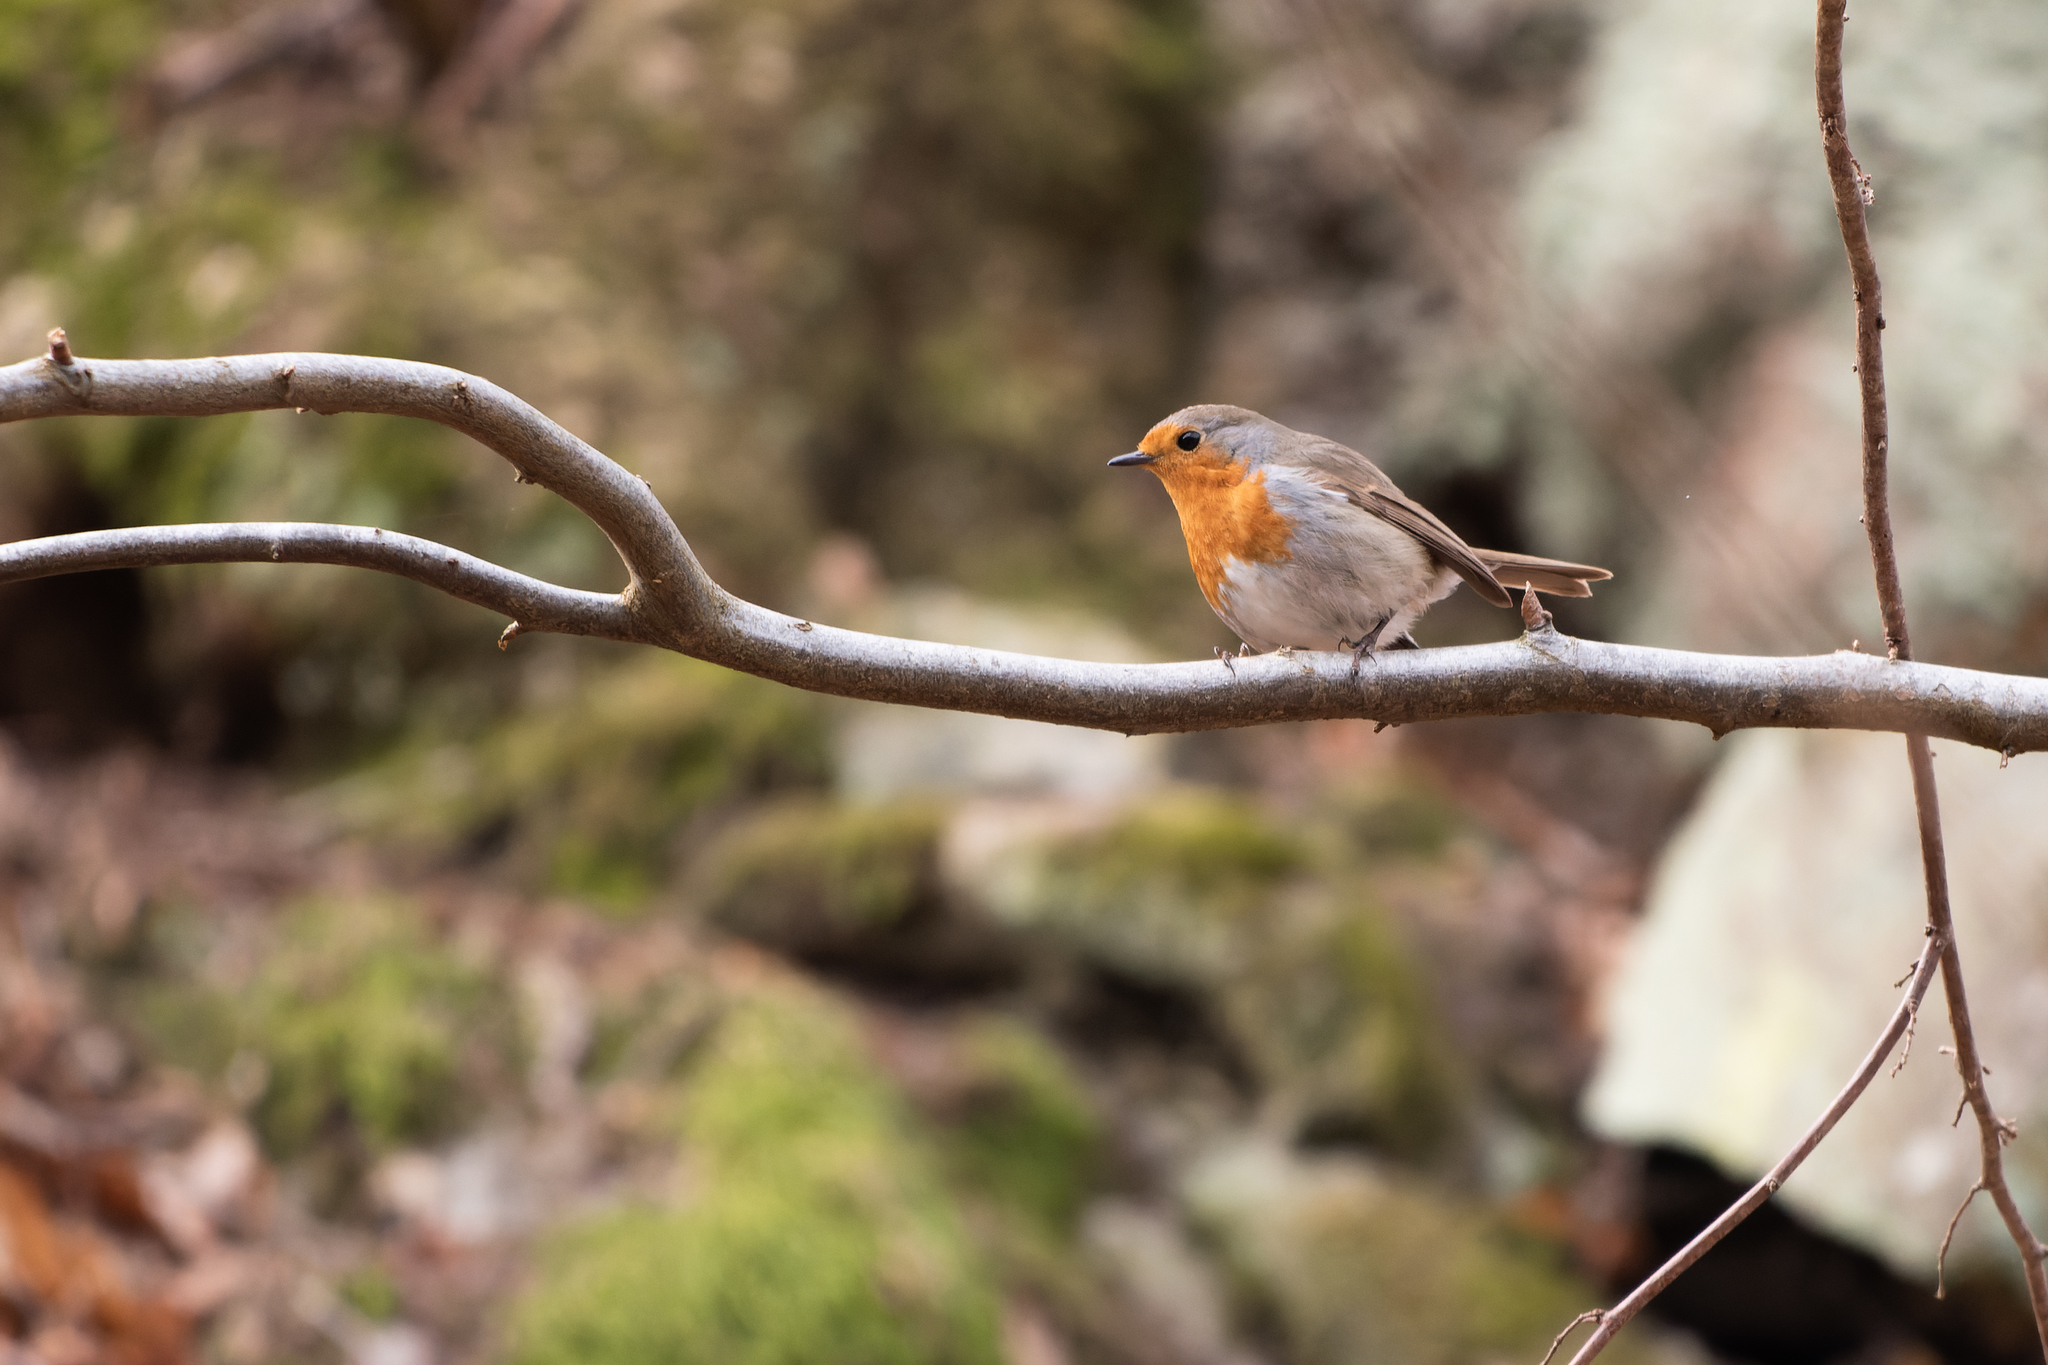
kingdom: Animalia
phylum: Chordata
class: Aves
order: Passeriformes
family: Muscicapidae
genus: Erithacus
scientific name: Erithacus rubecula
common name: European robin
